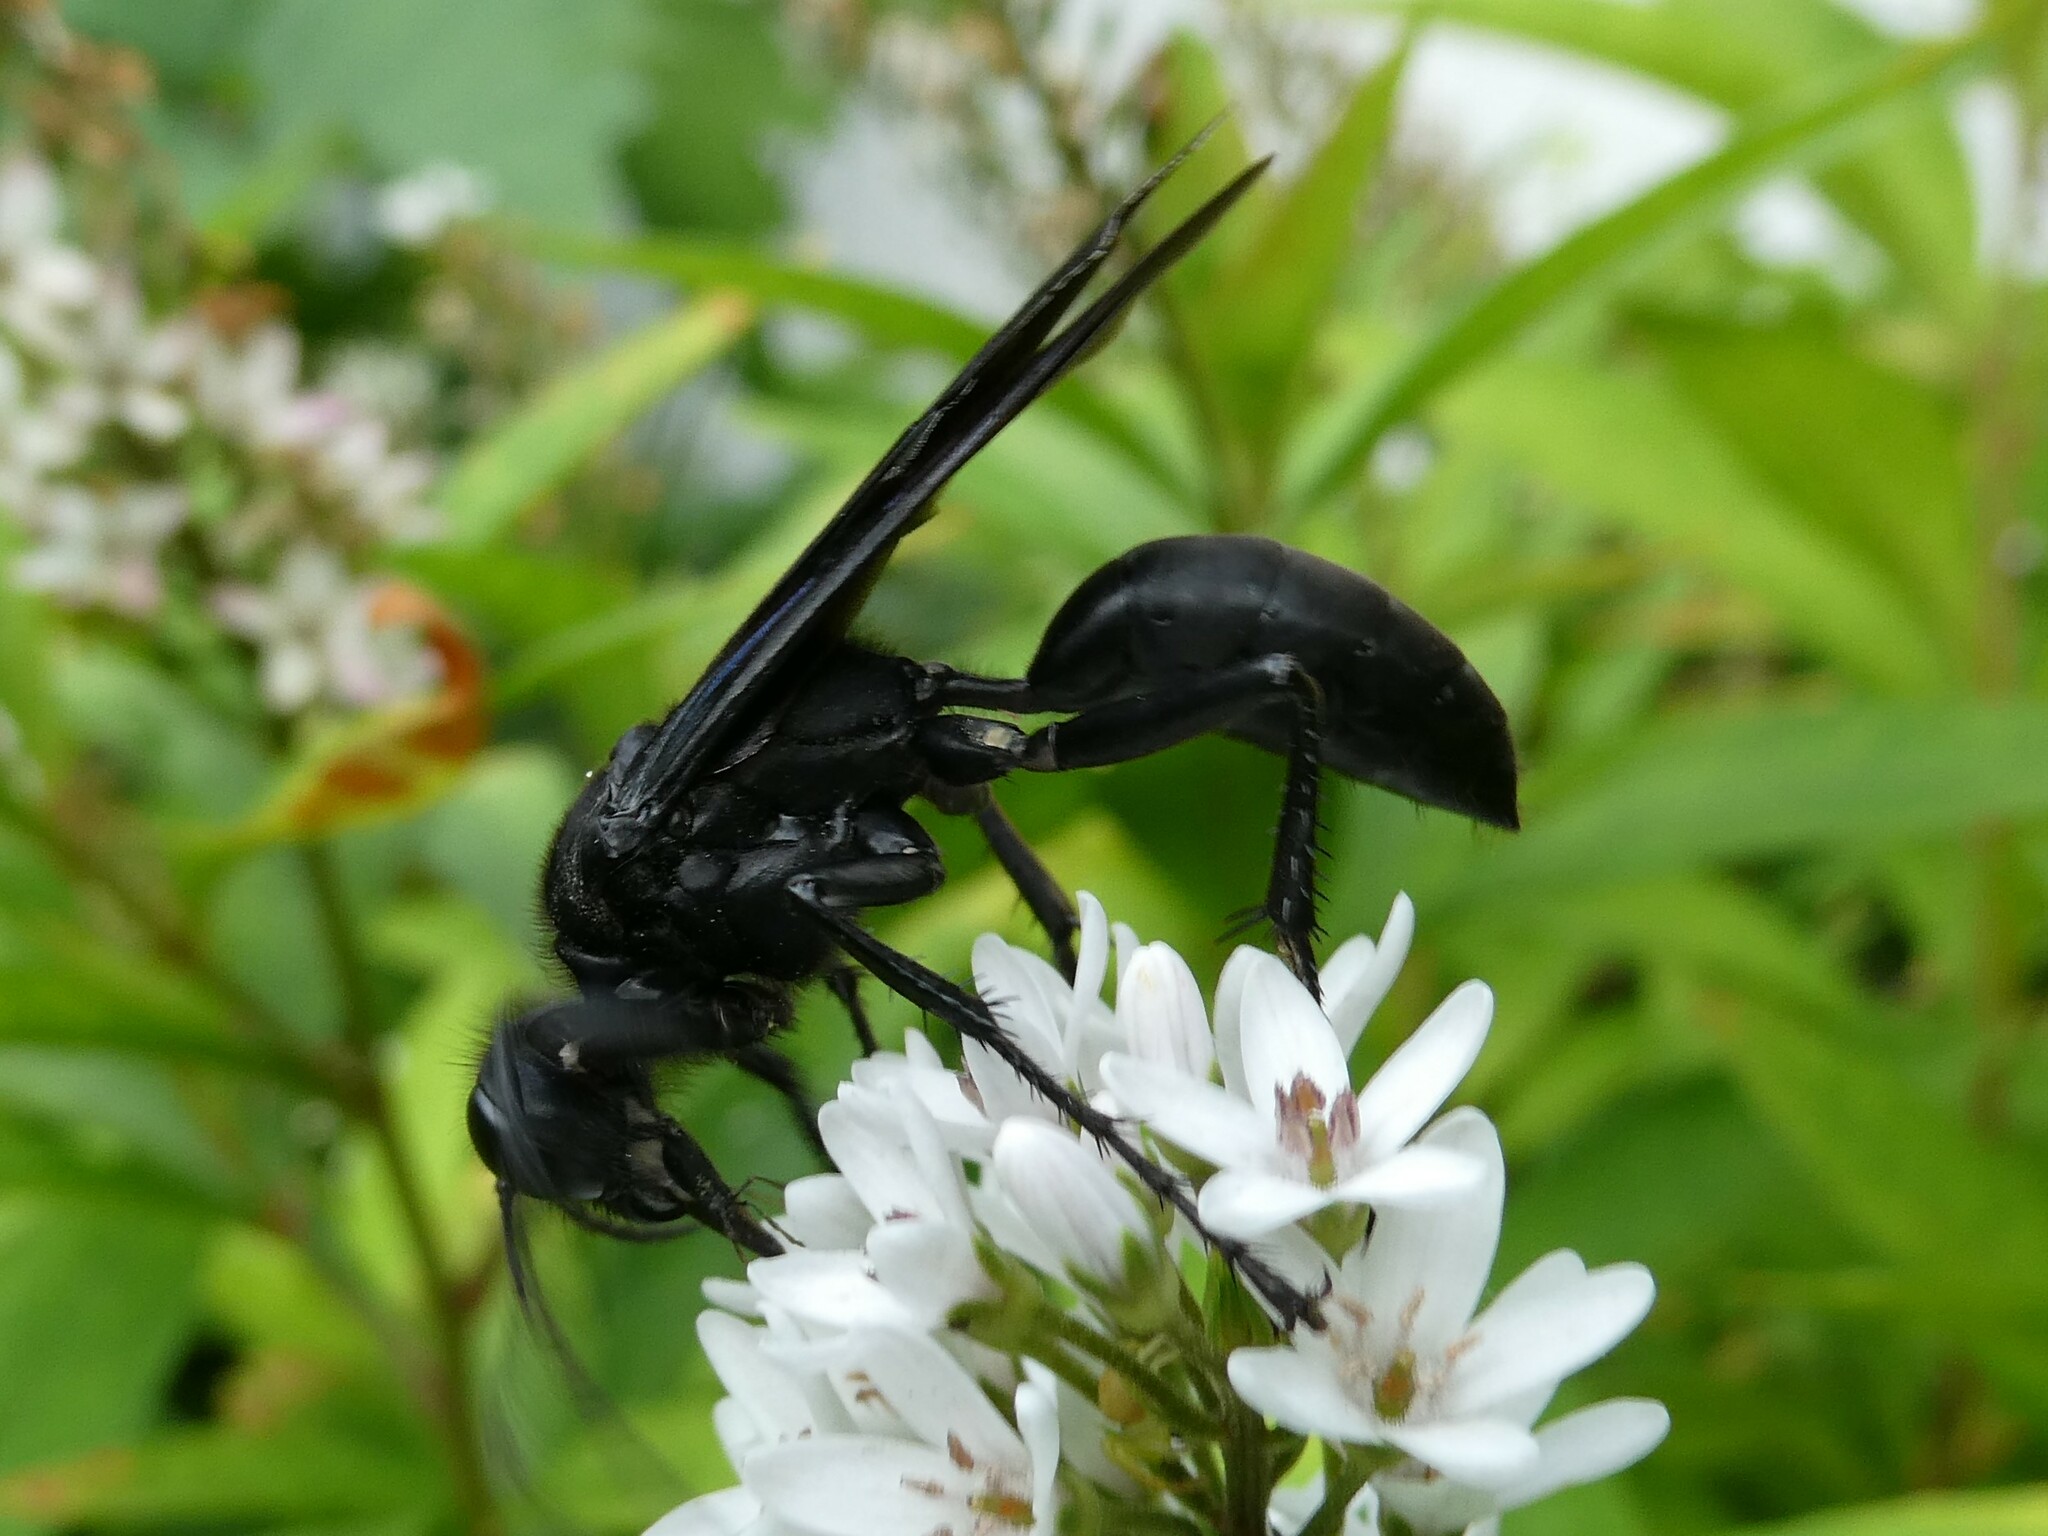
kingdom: Animalia
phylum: Arthropoda
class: Insecta
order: Hymenoptera
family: Sphecidae
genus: Sphex
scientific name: Sphex pensylvanicus
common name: Great black digger wasp
